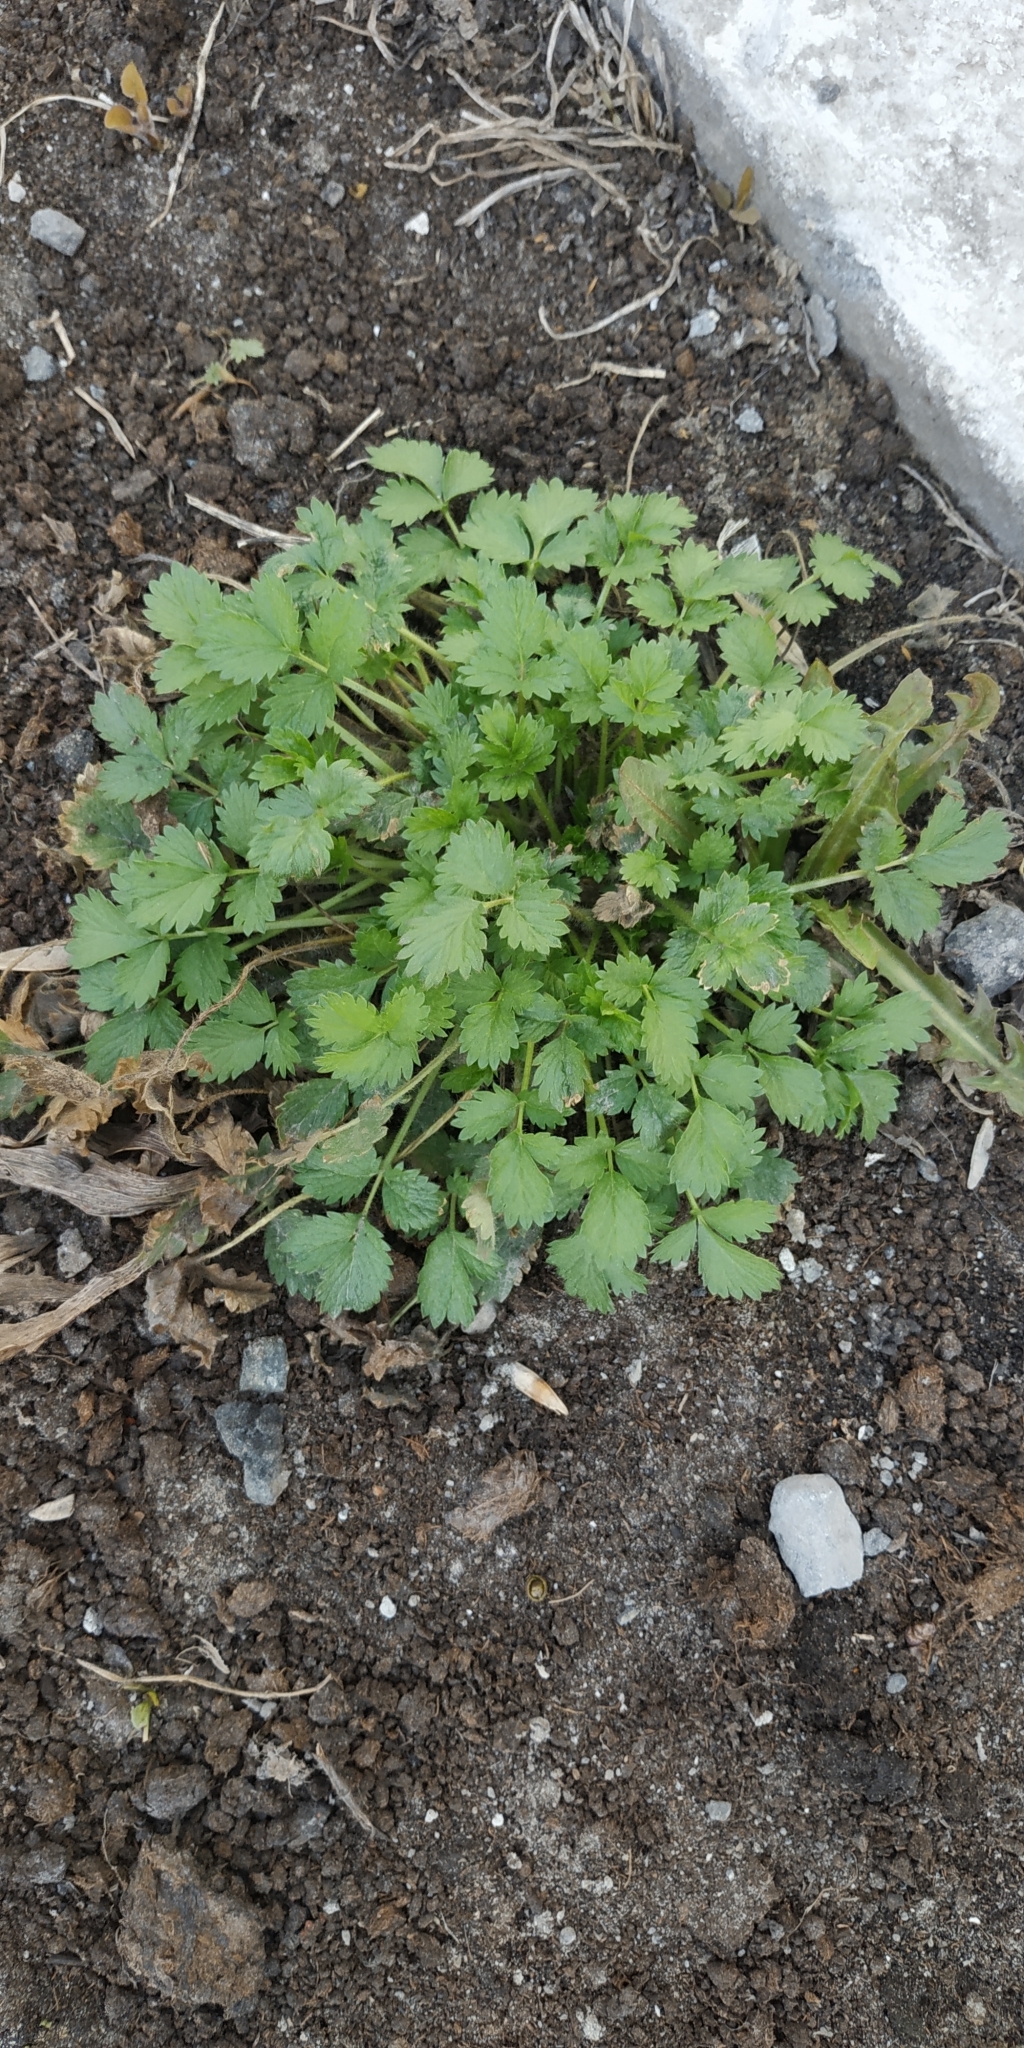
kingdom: Plantae
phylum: Tracheophyta
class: Magnoliopsida
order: Rosales
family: Rosaceae
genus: Potentilla
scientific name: Potentilla norvegica
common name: Ternate-leaved cinquefoil
